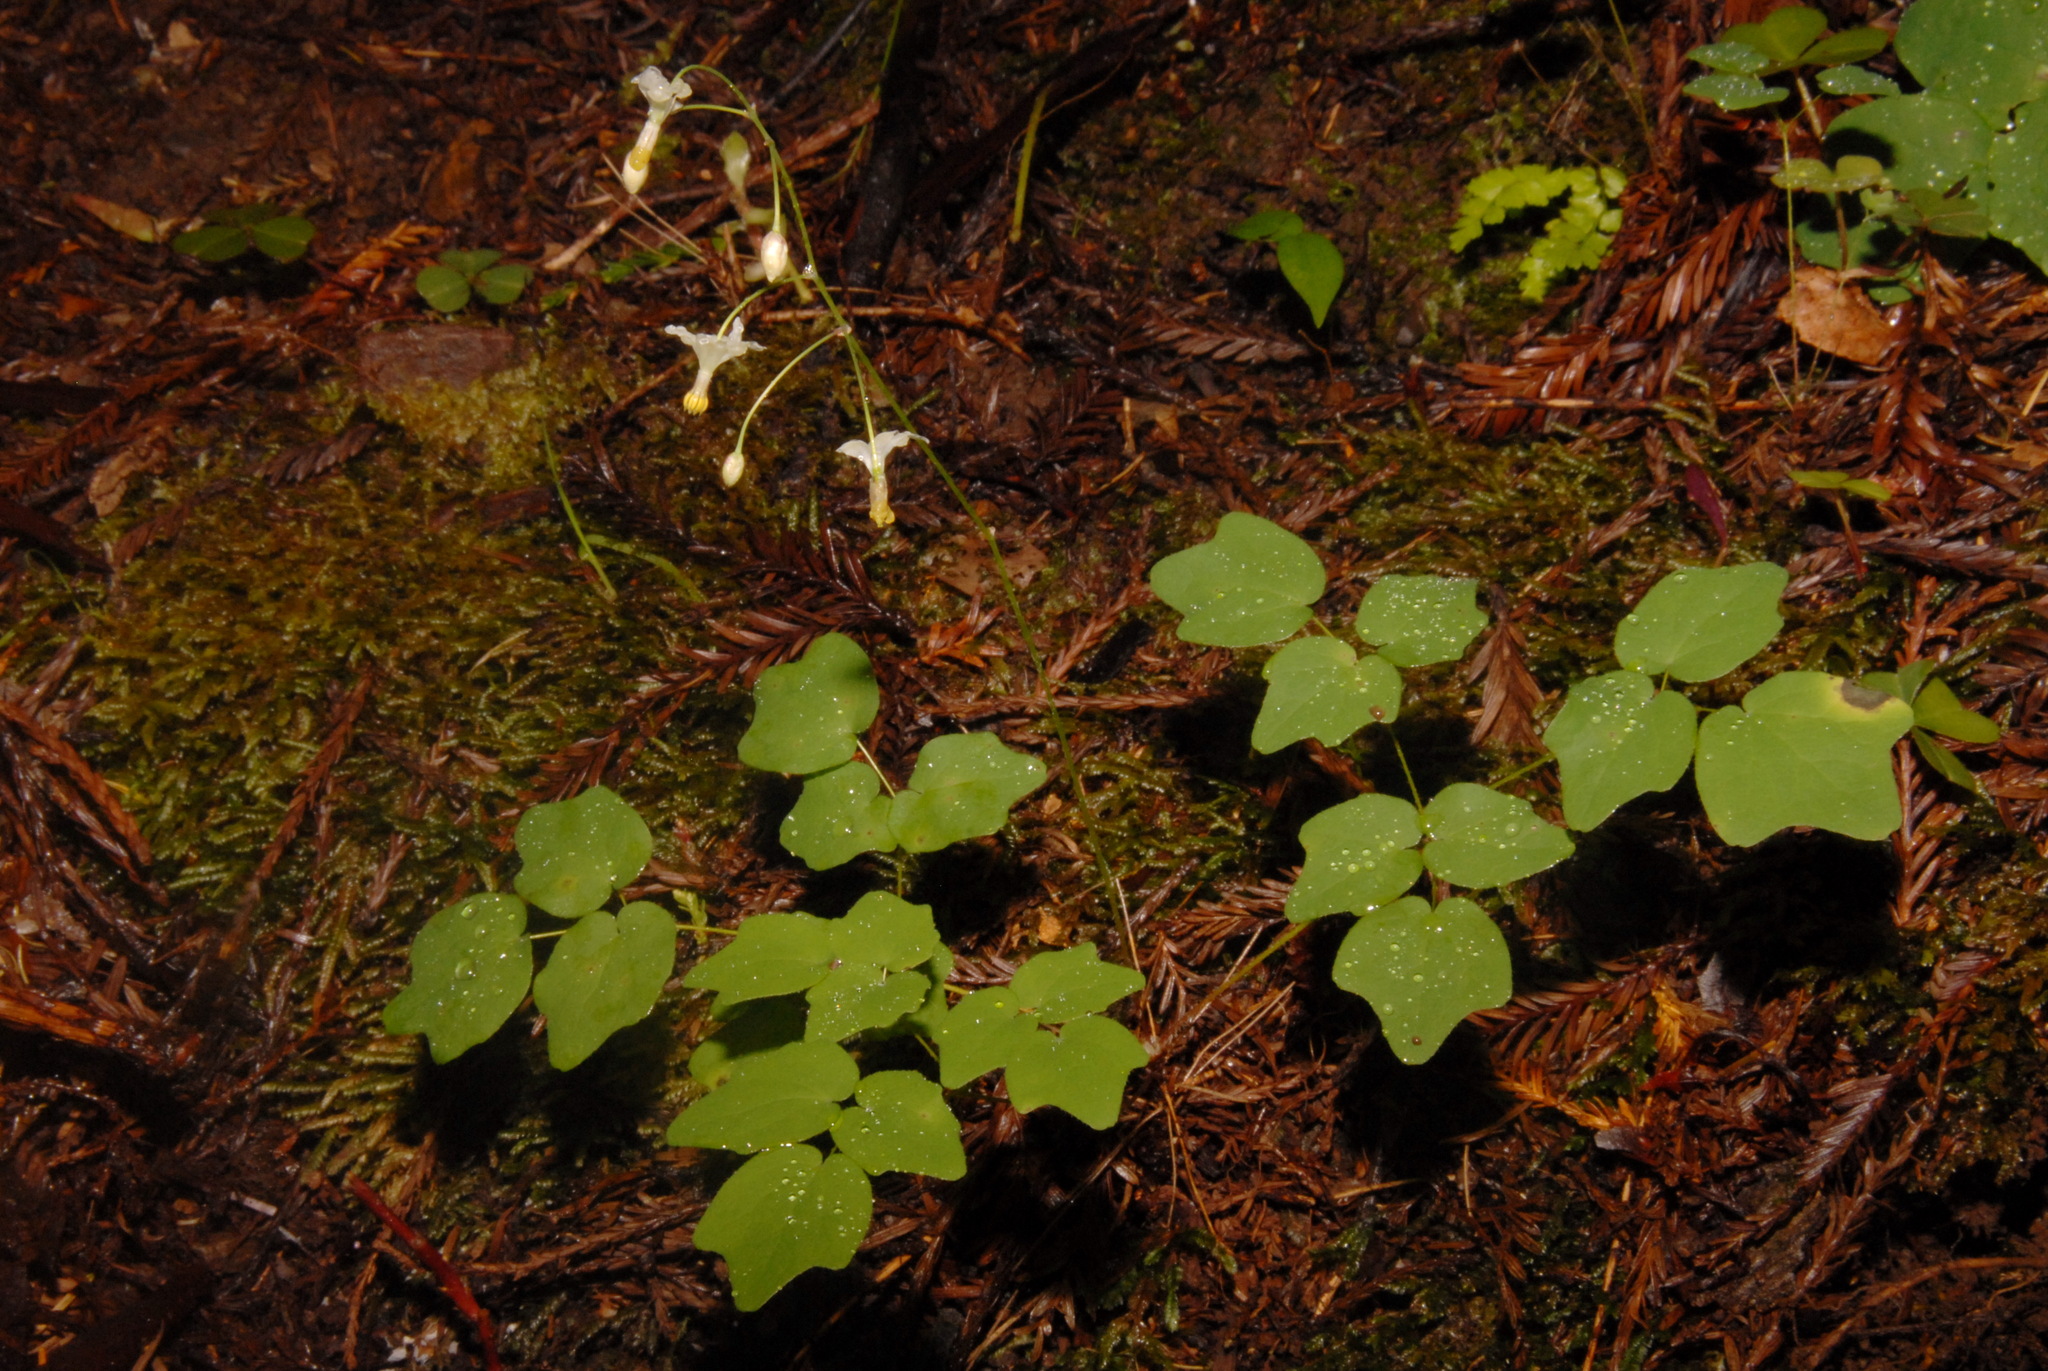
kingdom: Plantae
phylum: Tracheophyta
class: Magnoliopsida
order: Ranunculales
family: Berberidaceae
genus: Vancouveria
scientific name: Vancouveria hexandra
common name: Northern inside-out-flower
